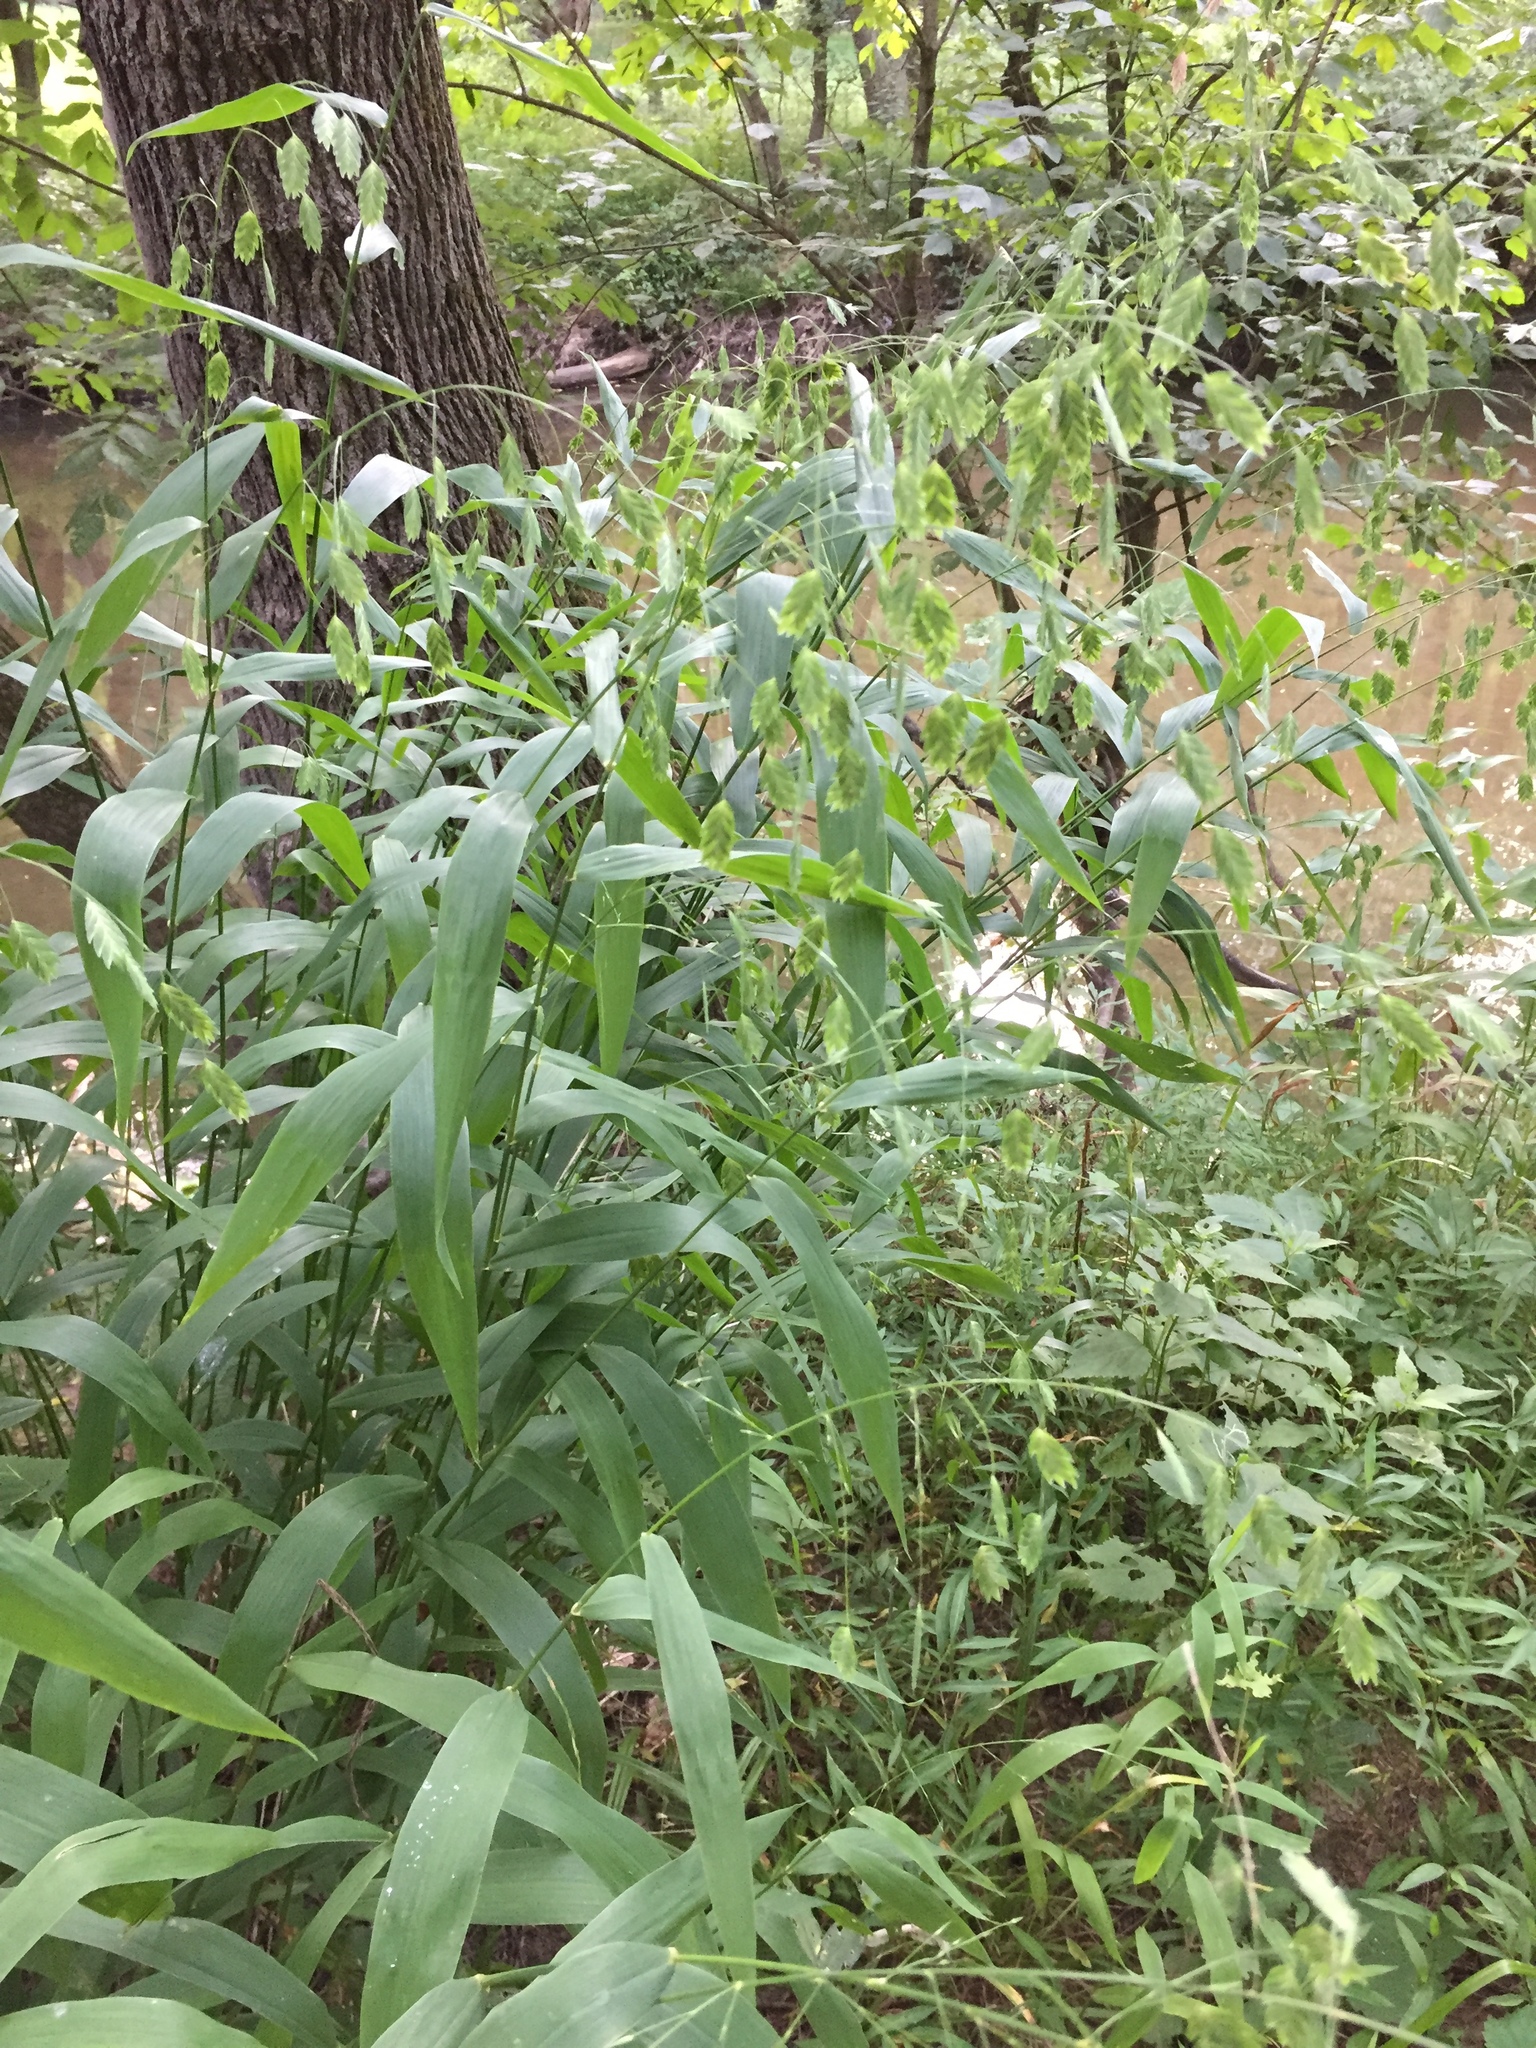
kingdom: Plantae
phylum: Tracheophyta
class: Liliopsida
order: Poales
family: Poaceae
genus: Chasmanthium
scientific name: Chasmanthium latifolium
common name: Broad-leaved chasmanthium
